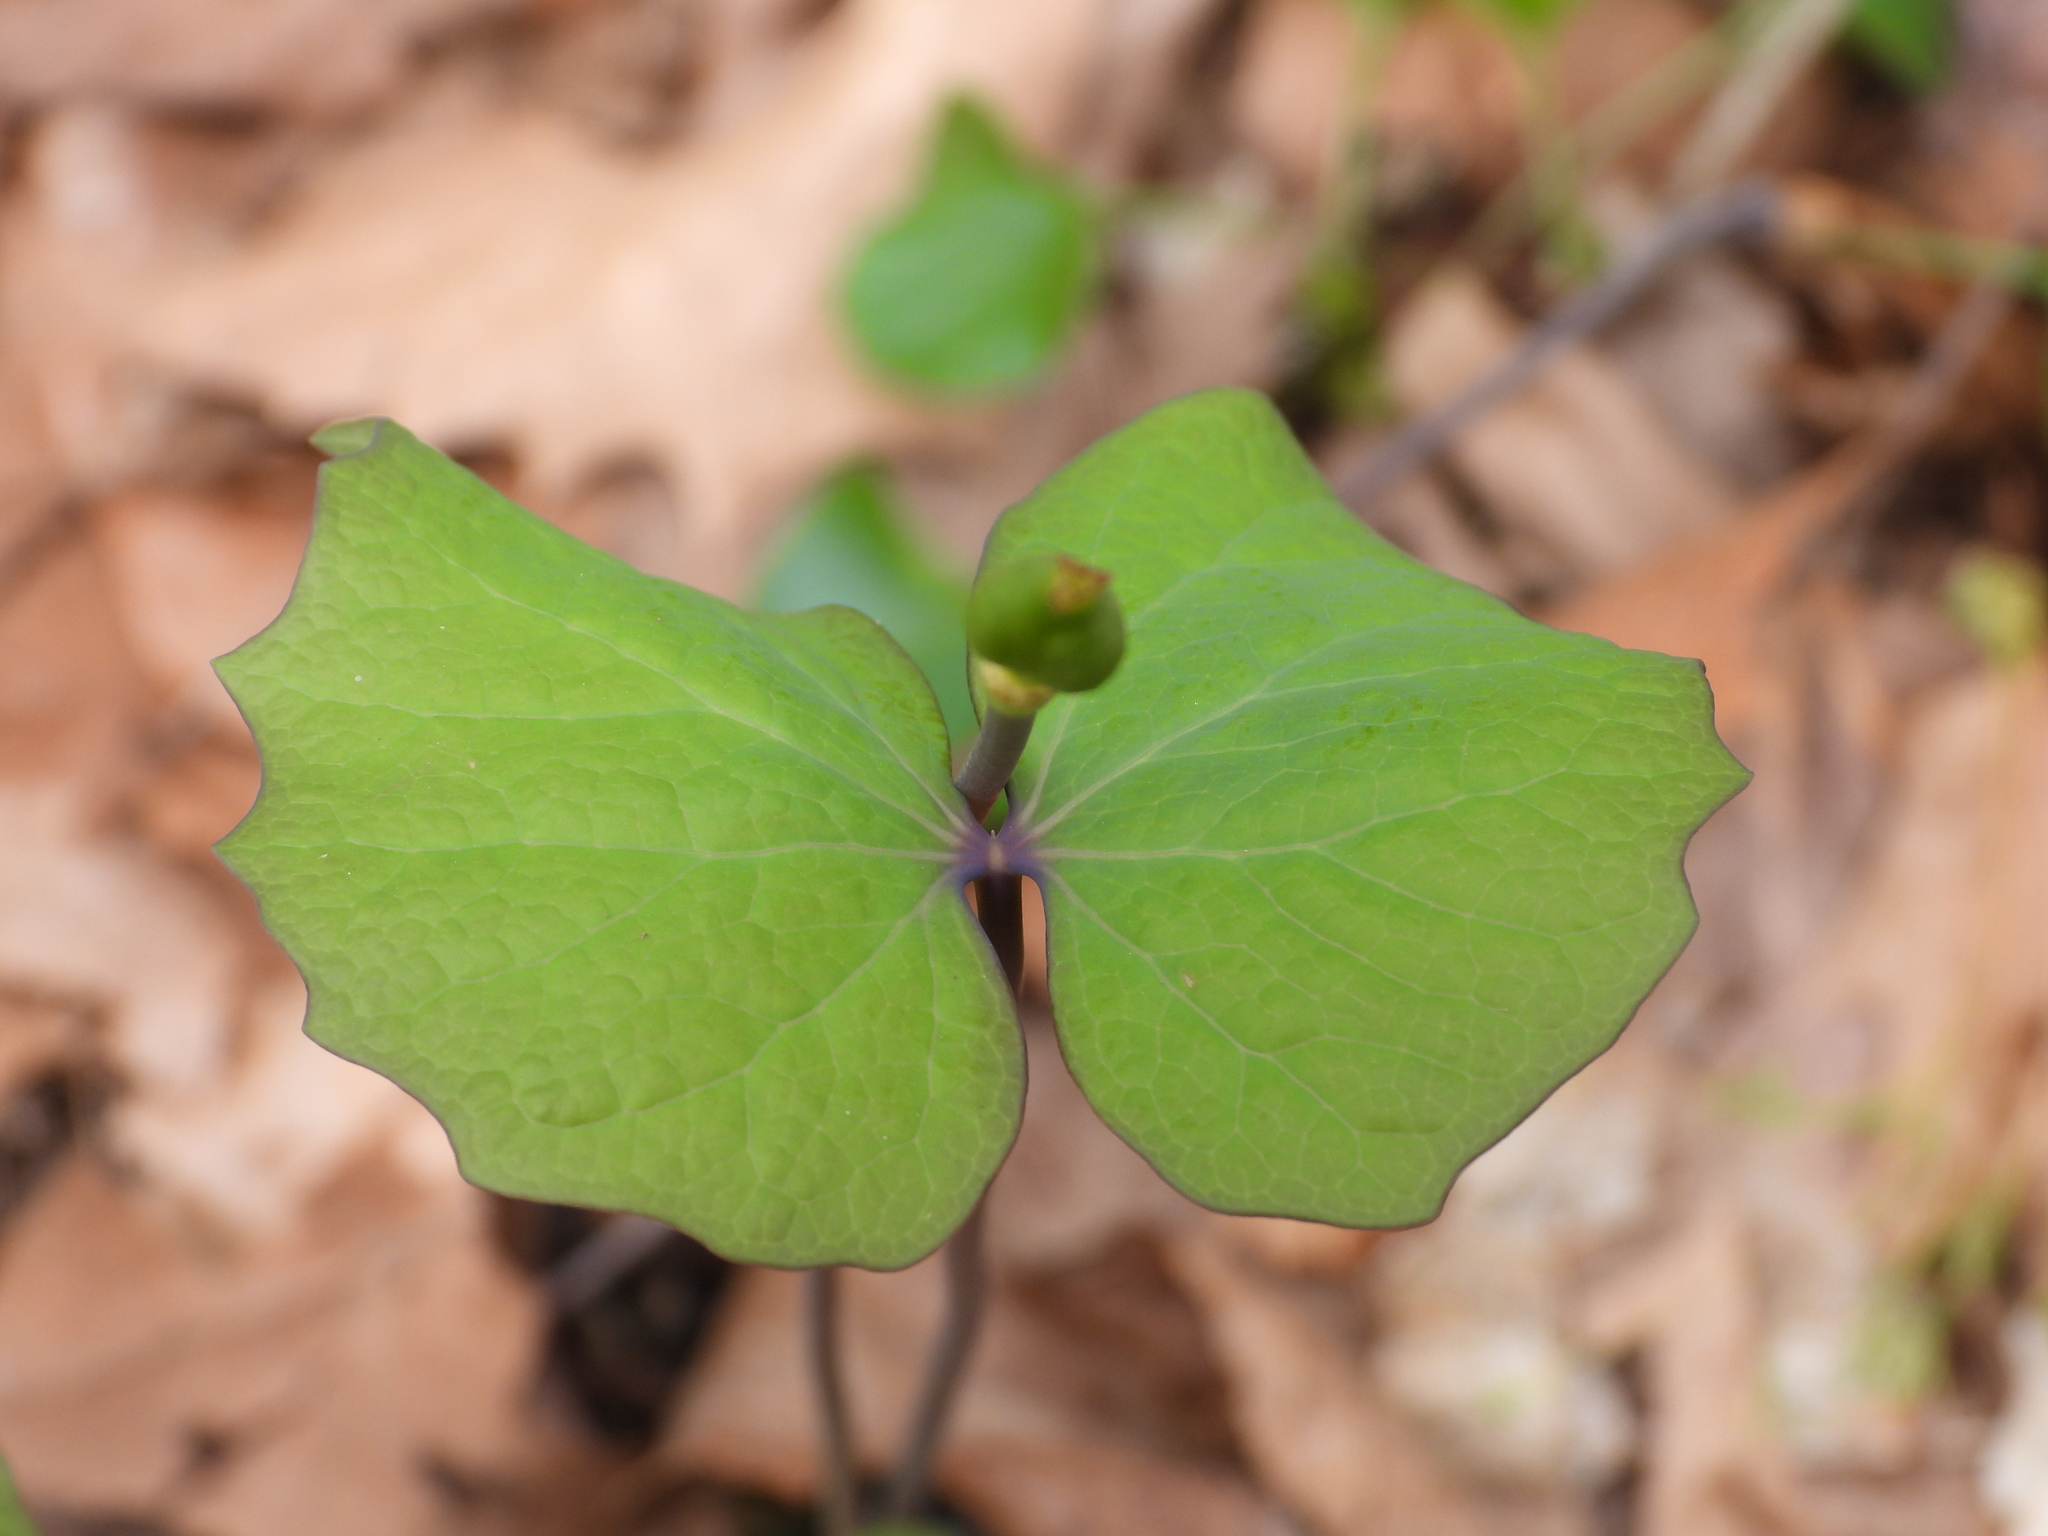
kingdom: Plantae
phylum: Tracheophyta
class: Magnoliopsida
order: Ranunculales
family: Berberidaceae
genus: Jeffersonia
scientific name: Jeffersonia diphylla
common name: Rheumatism-root
